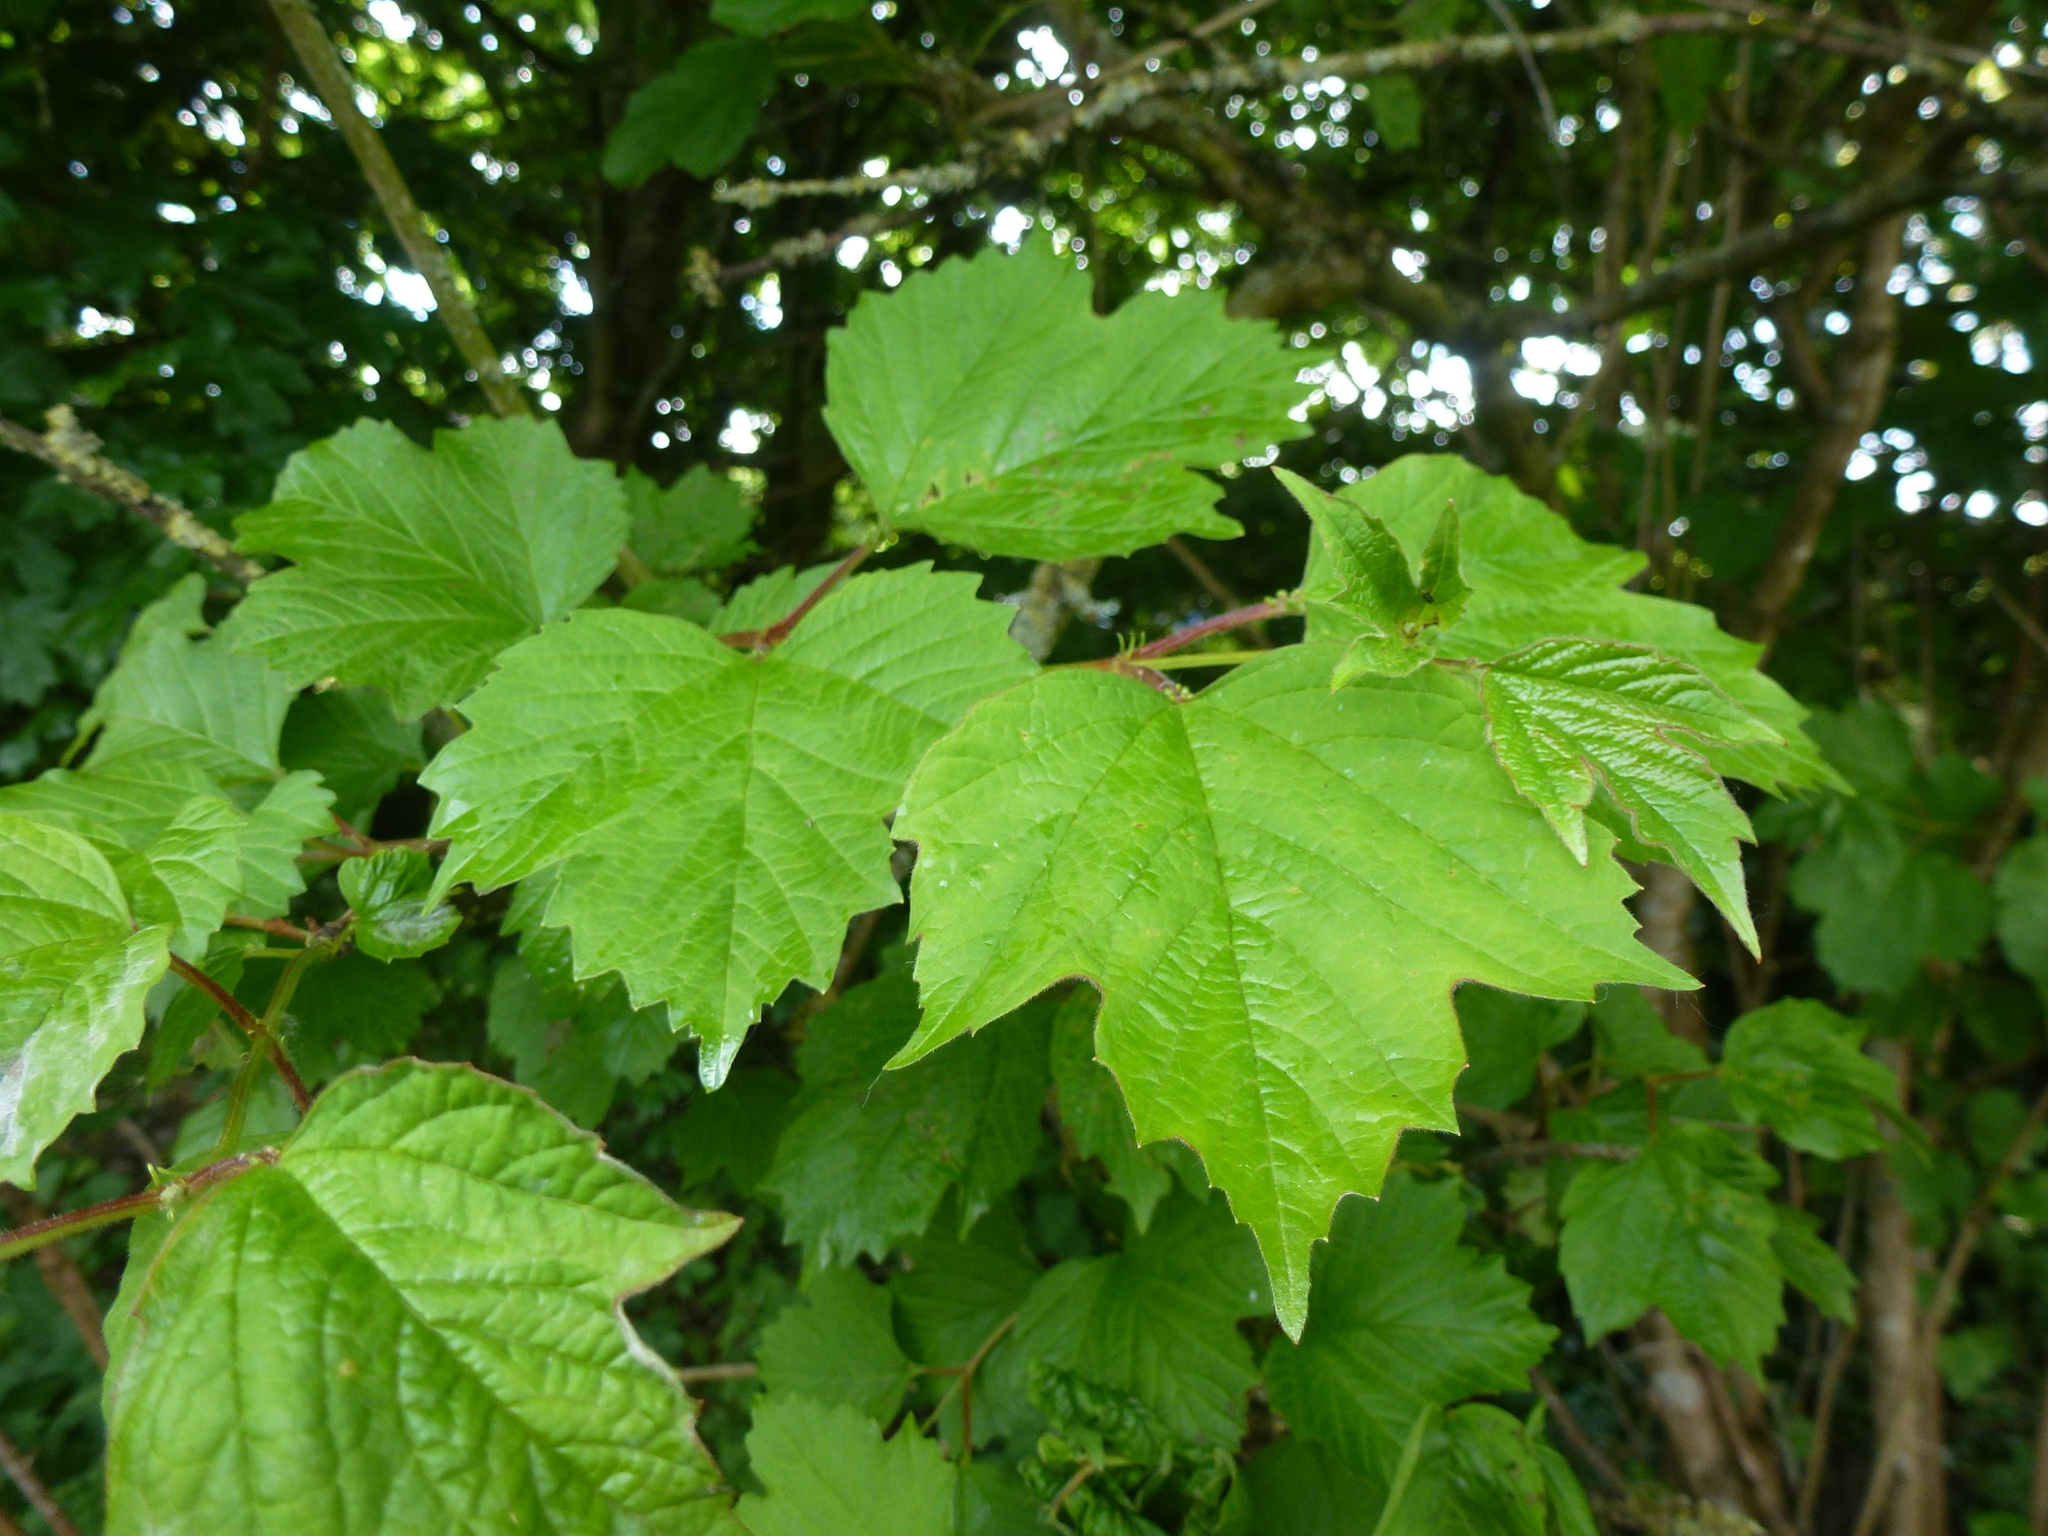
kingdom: Plantae
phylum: Tracheophyta
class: Magnoliopsida
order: Dipsacales
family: Viburnaceae
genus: Viburnum
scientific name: Viburnum opulus
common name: Guelder-rose
